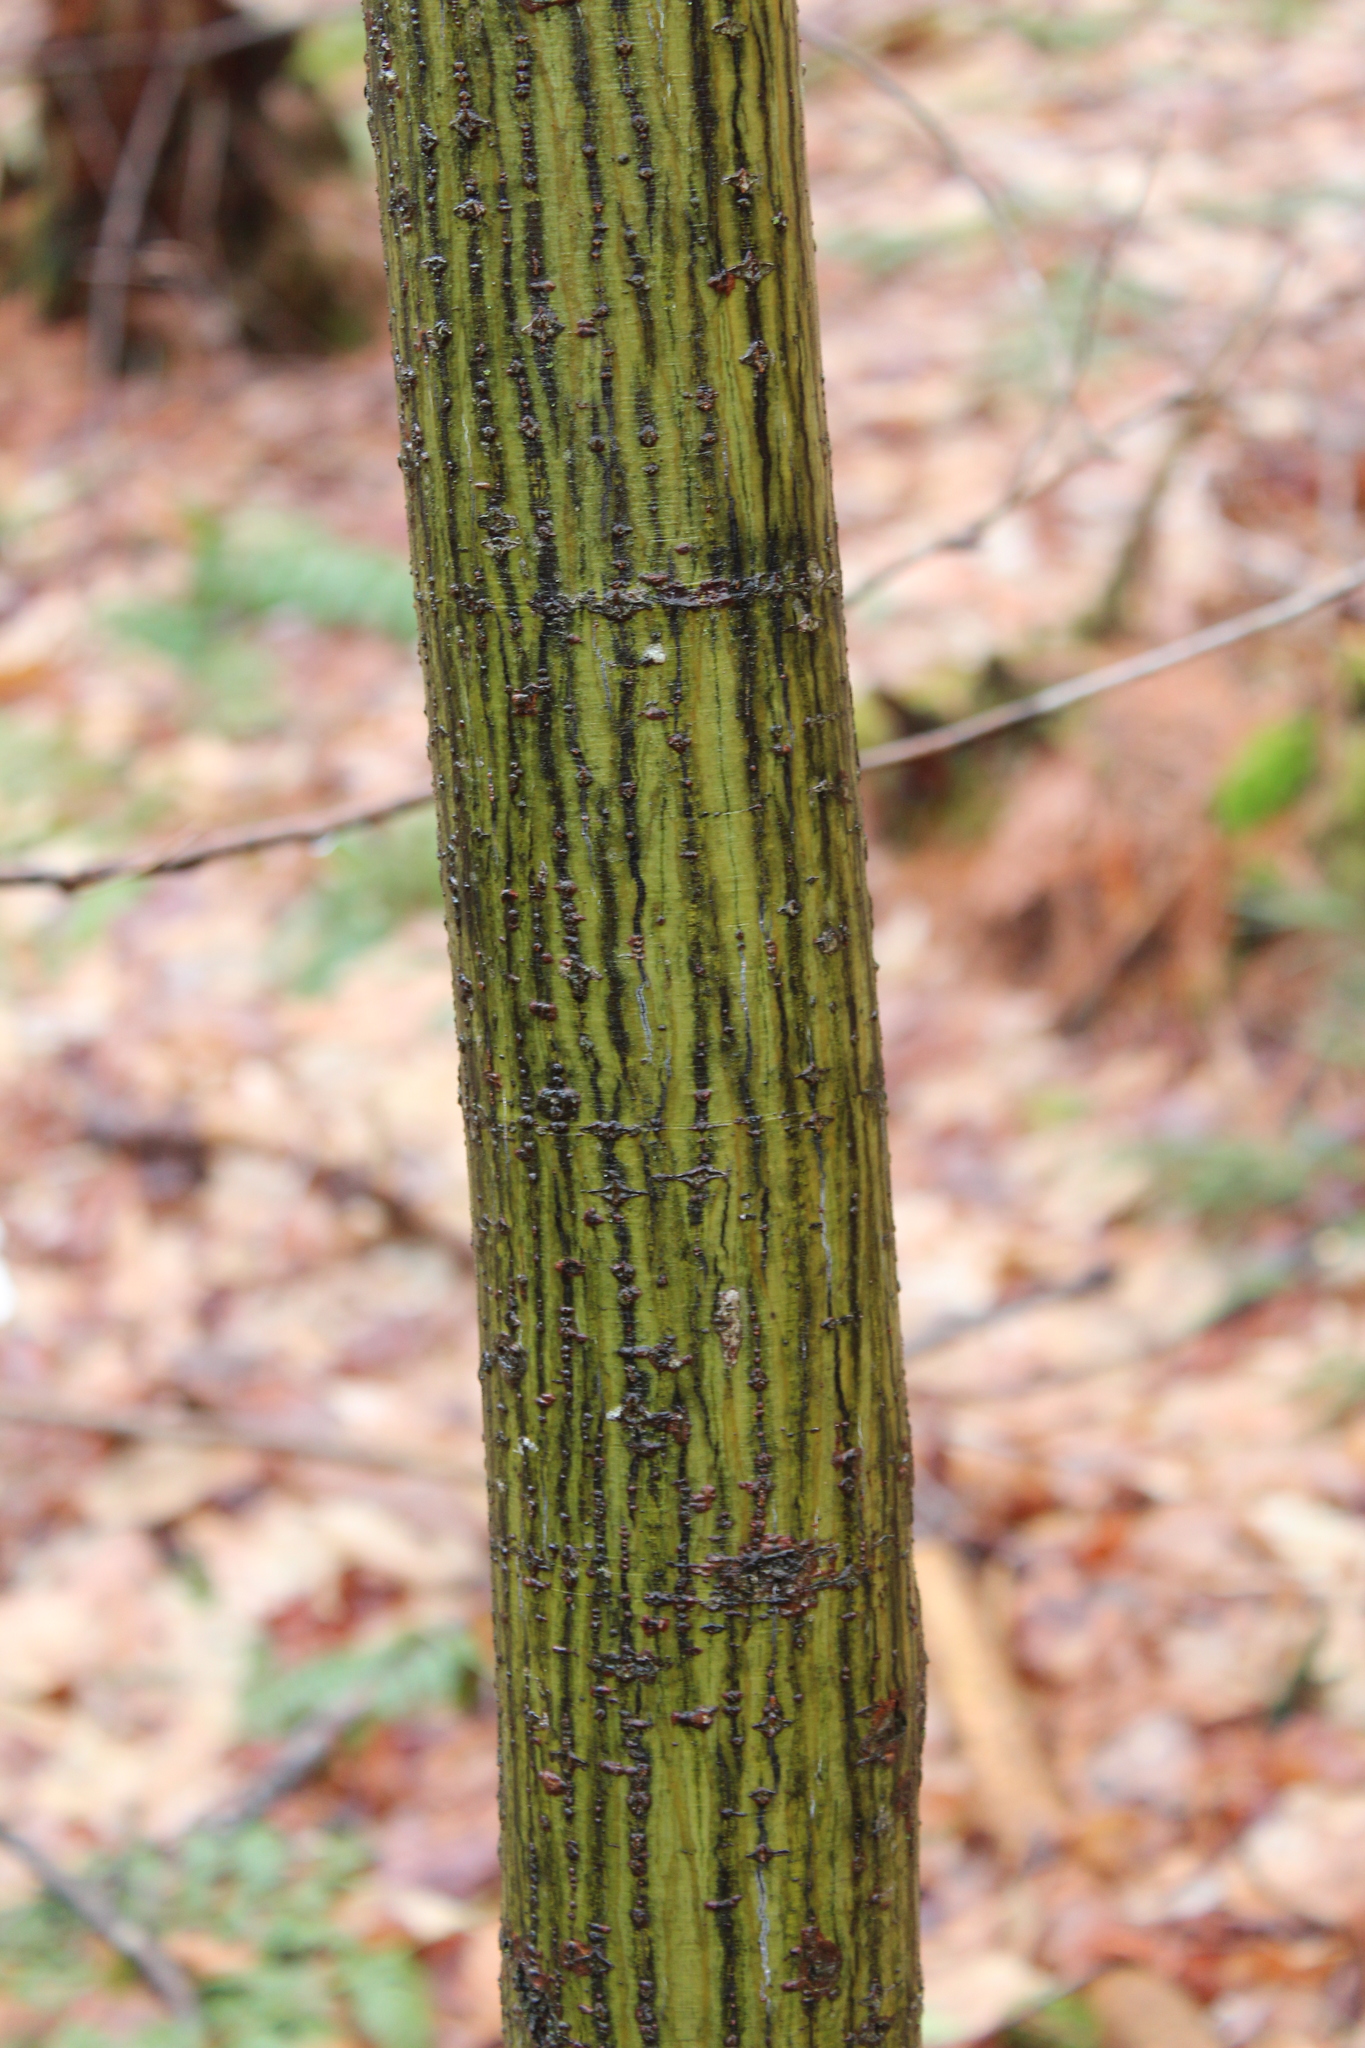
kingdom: Plantae
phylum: Tracheophyta
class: Magnoliopsida
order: Sapindales
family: Sapindaceae
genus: Acer
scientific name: Acer pensylvanicum
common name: Moosewood
